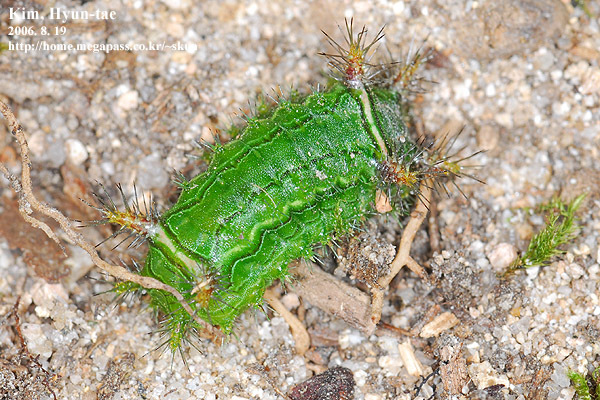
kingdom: Animalia
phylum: Arthropoda
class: Insecta
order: Lepidoptera
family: Limacodidae
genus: Narosoideus
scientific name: Narosoideus flavidorsalis
